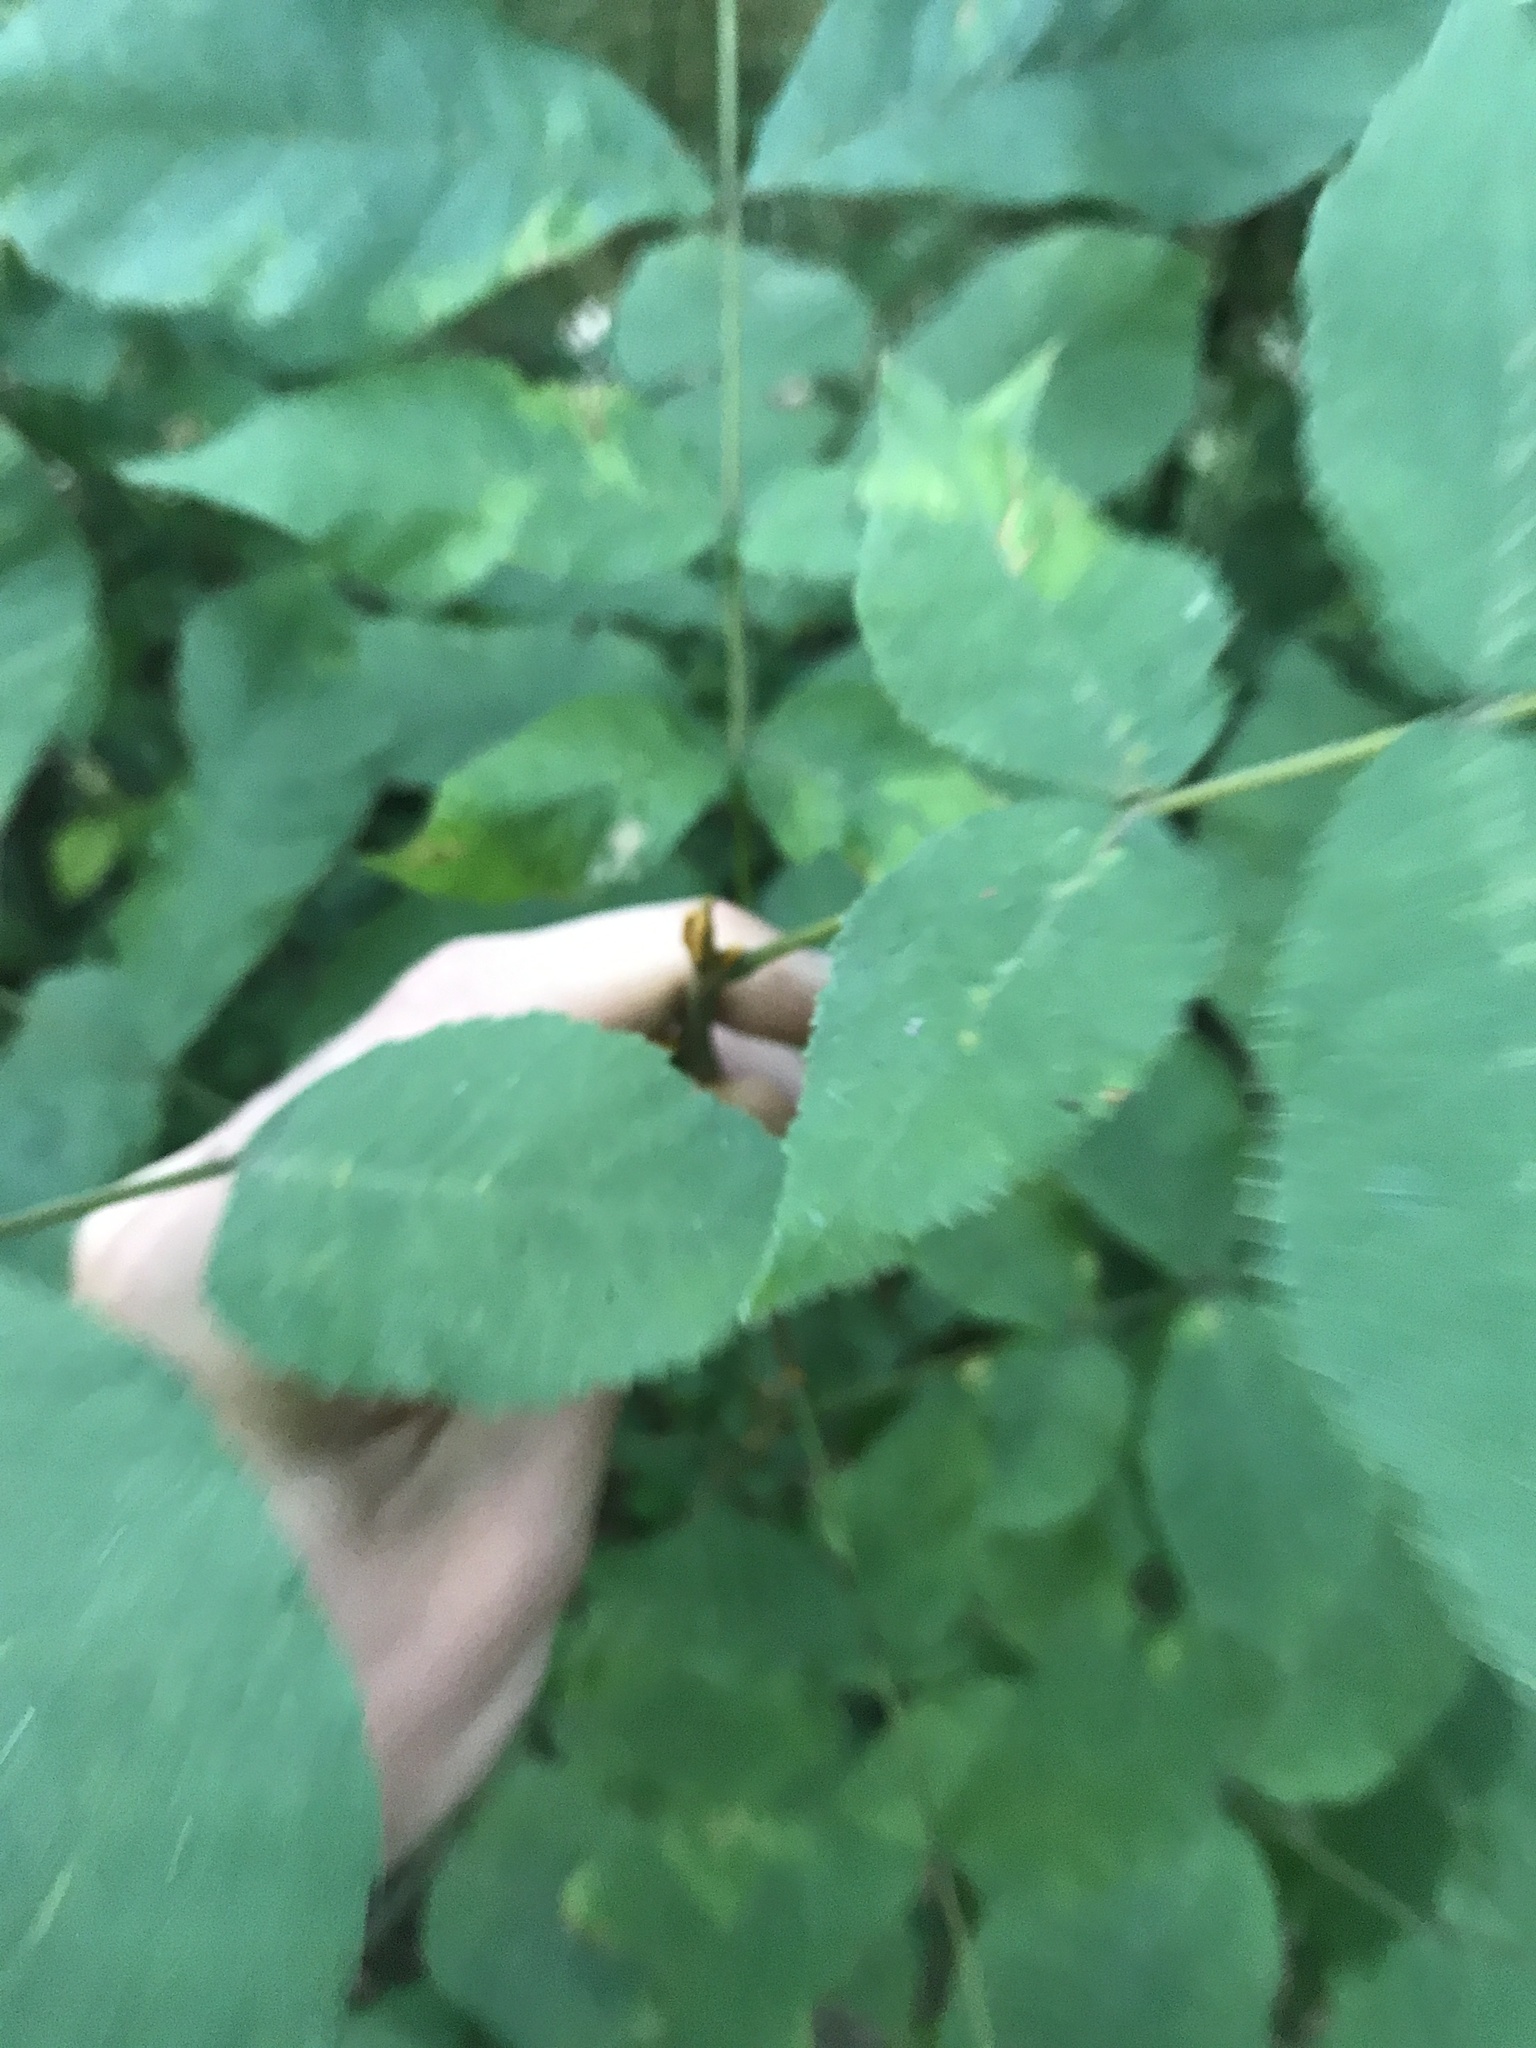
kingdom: Plantae
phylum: Tracheophyta
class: Magnoliopsida
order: Fagales
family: Juglandaceae
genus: Carya
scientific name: Carya cordiformis
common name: Bitternut hickory
